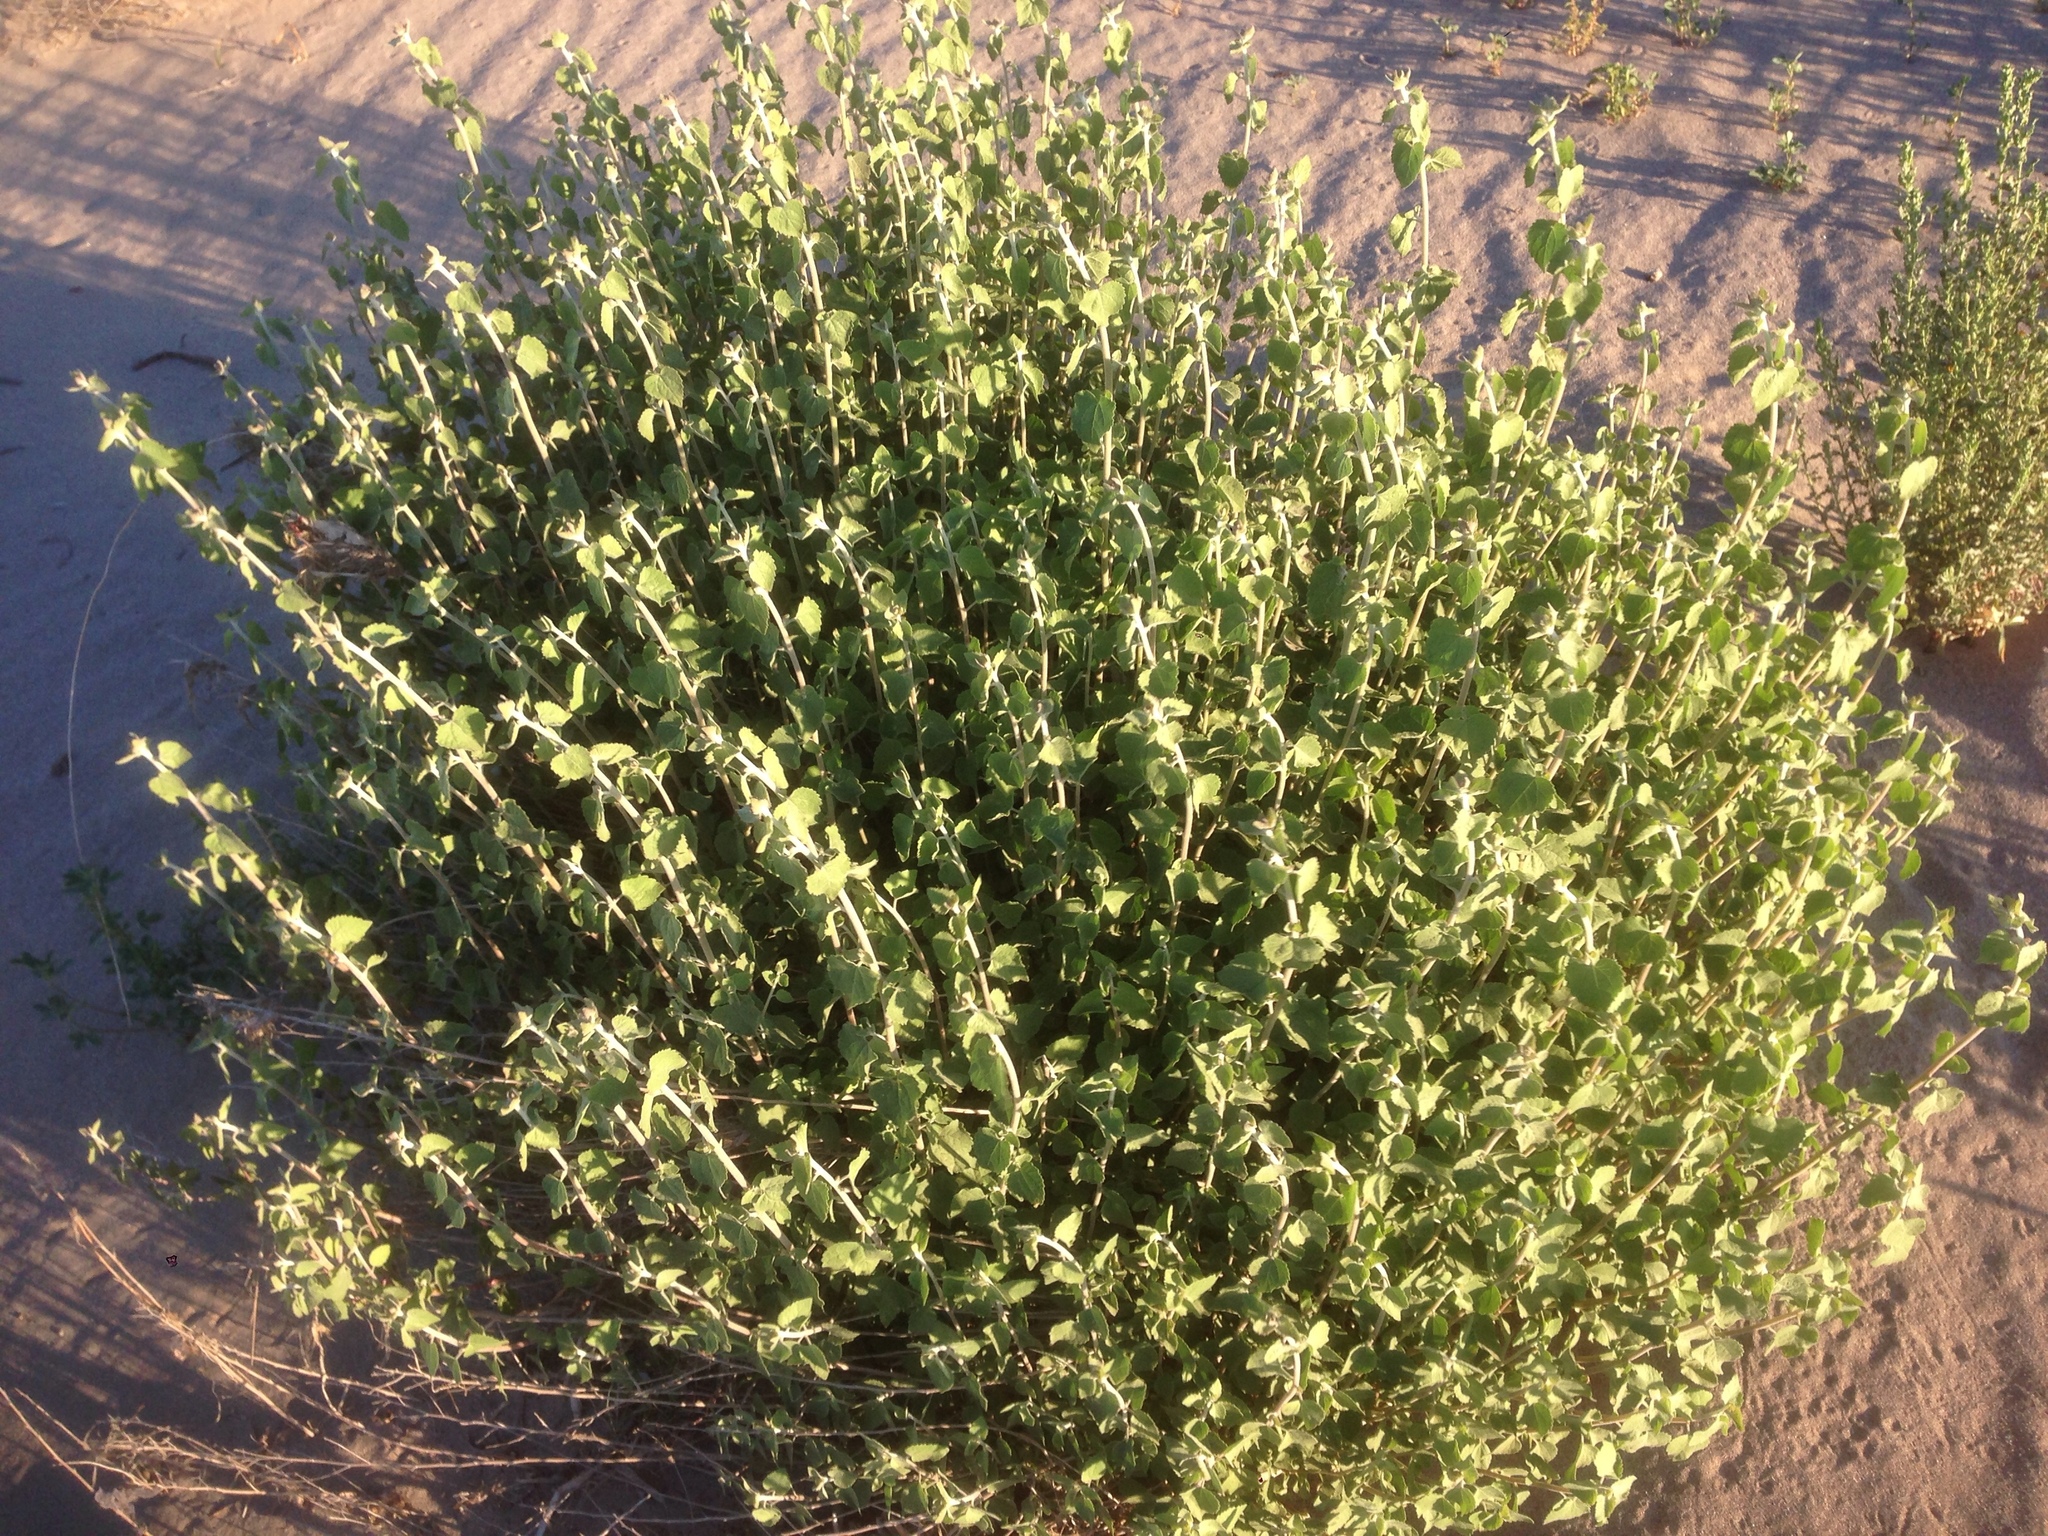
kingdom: Plantae
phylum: Tracheophyta
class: Magnoliopsida
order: Asterales
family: Asteraceae
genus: Brickellia
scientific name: Brickellia californica
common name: California brickellbush
